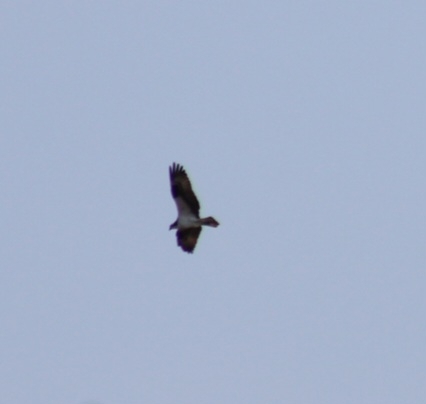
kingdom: Animalia
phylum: Chordata
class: Aves
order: Accipitriformes
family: Pandionidae
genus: Pandion
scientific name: Pandion haliaetus
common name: Osprey
